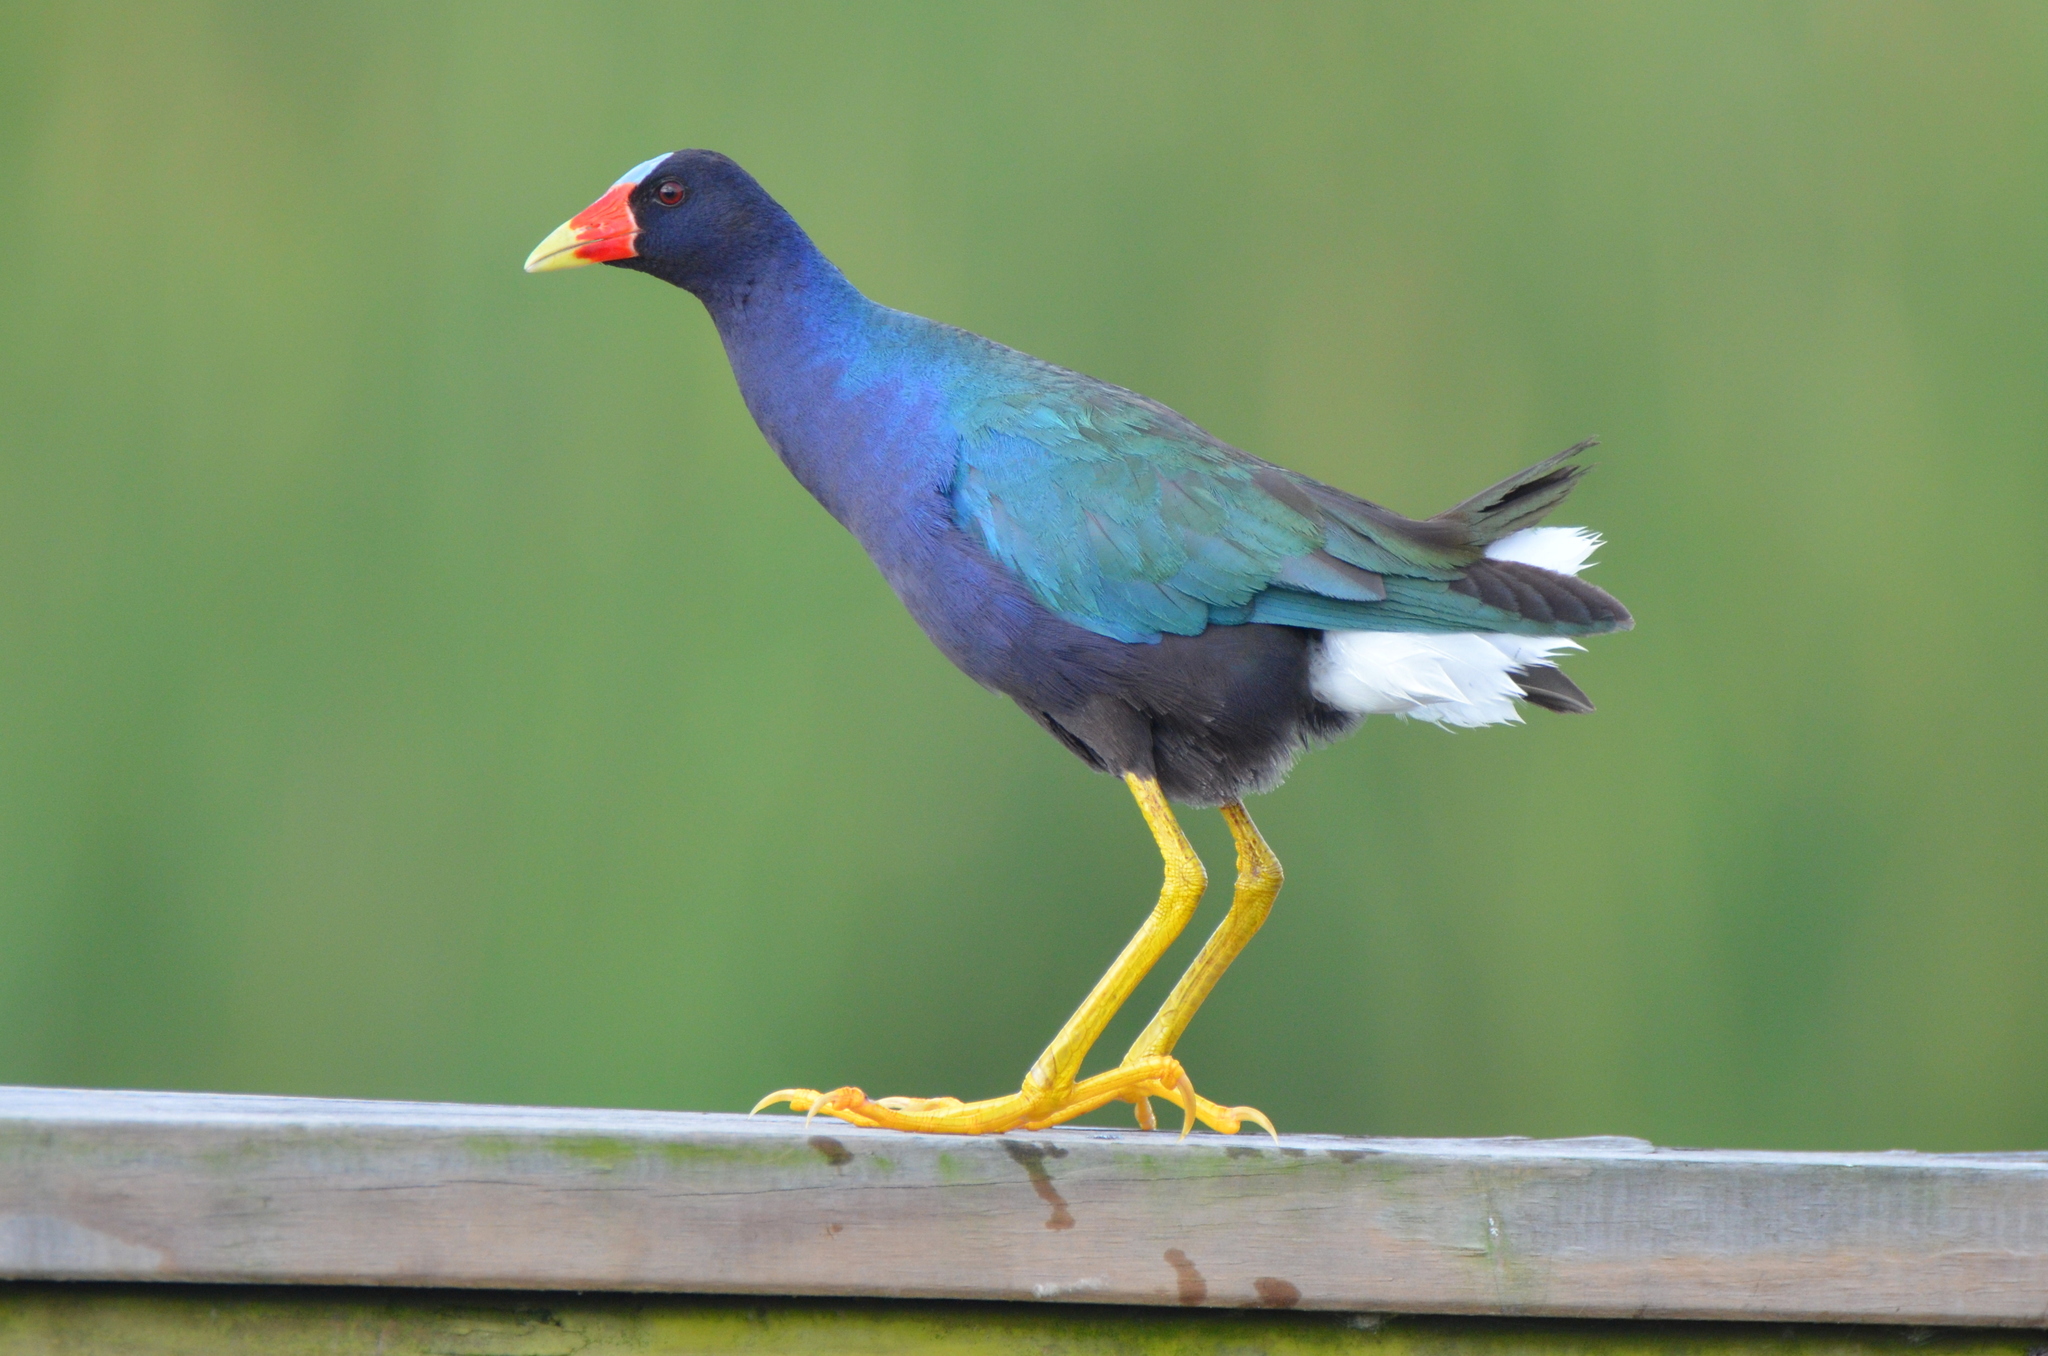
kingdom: Animalia
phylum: Chordata
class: Aves
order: Gruiformes
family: Rallidae
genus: Porphyrio
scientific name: Porphyrio martinica
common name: Purple gallinule
